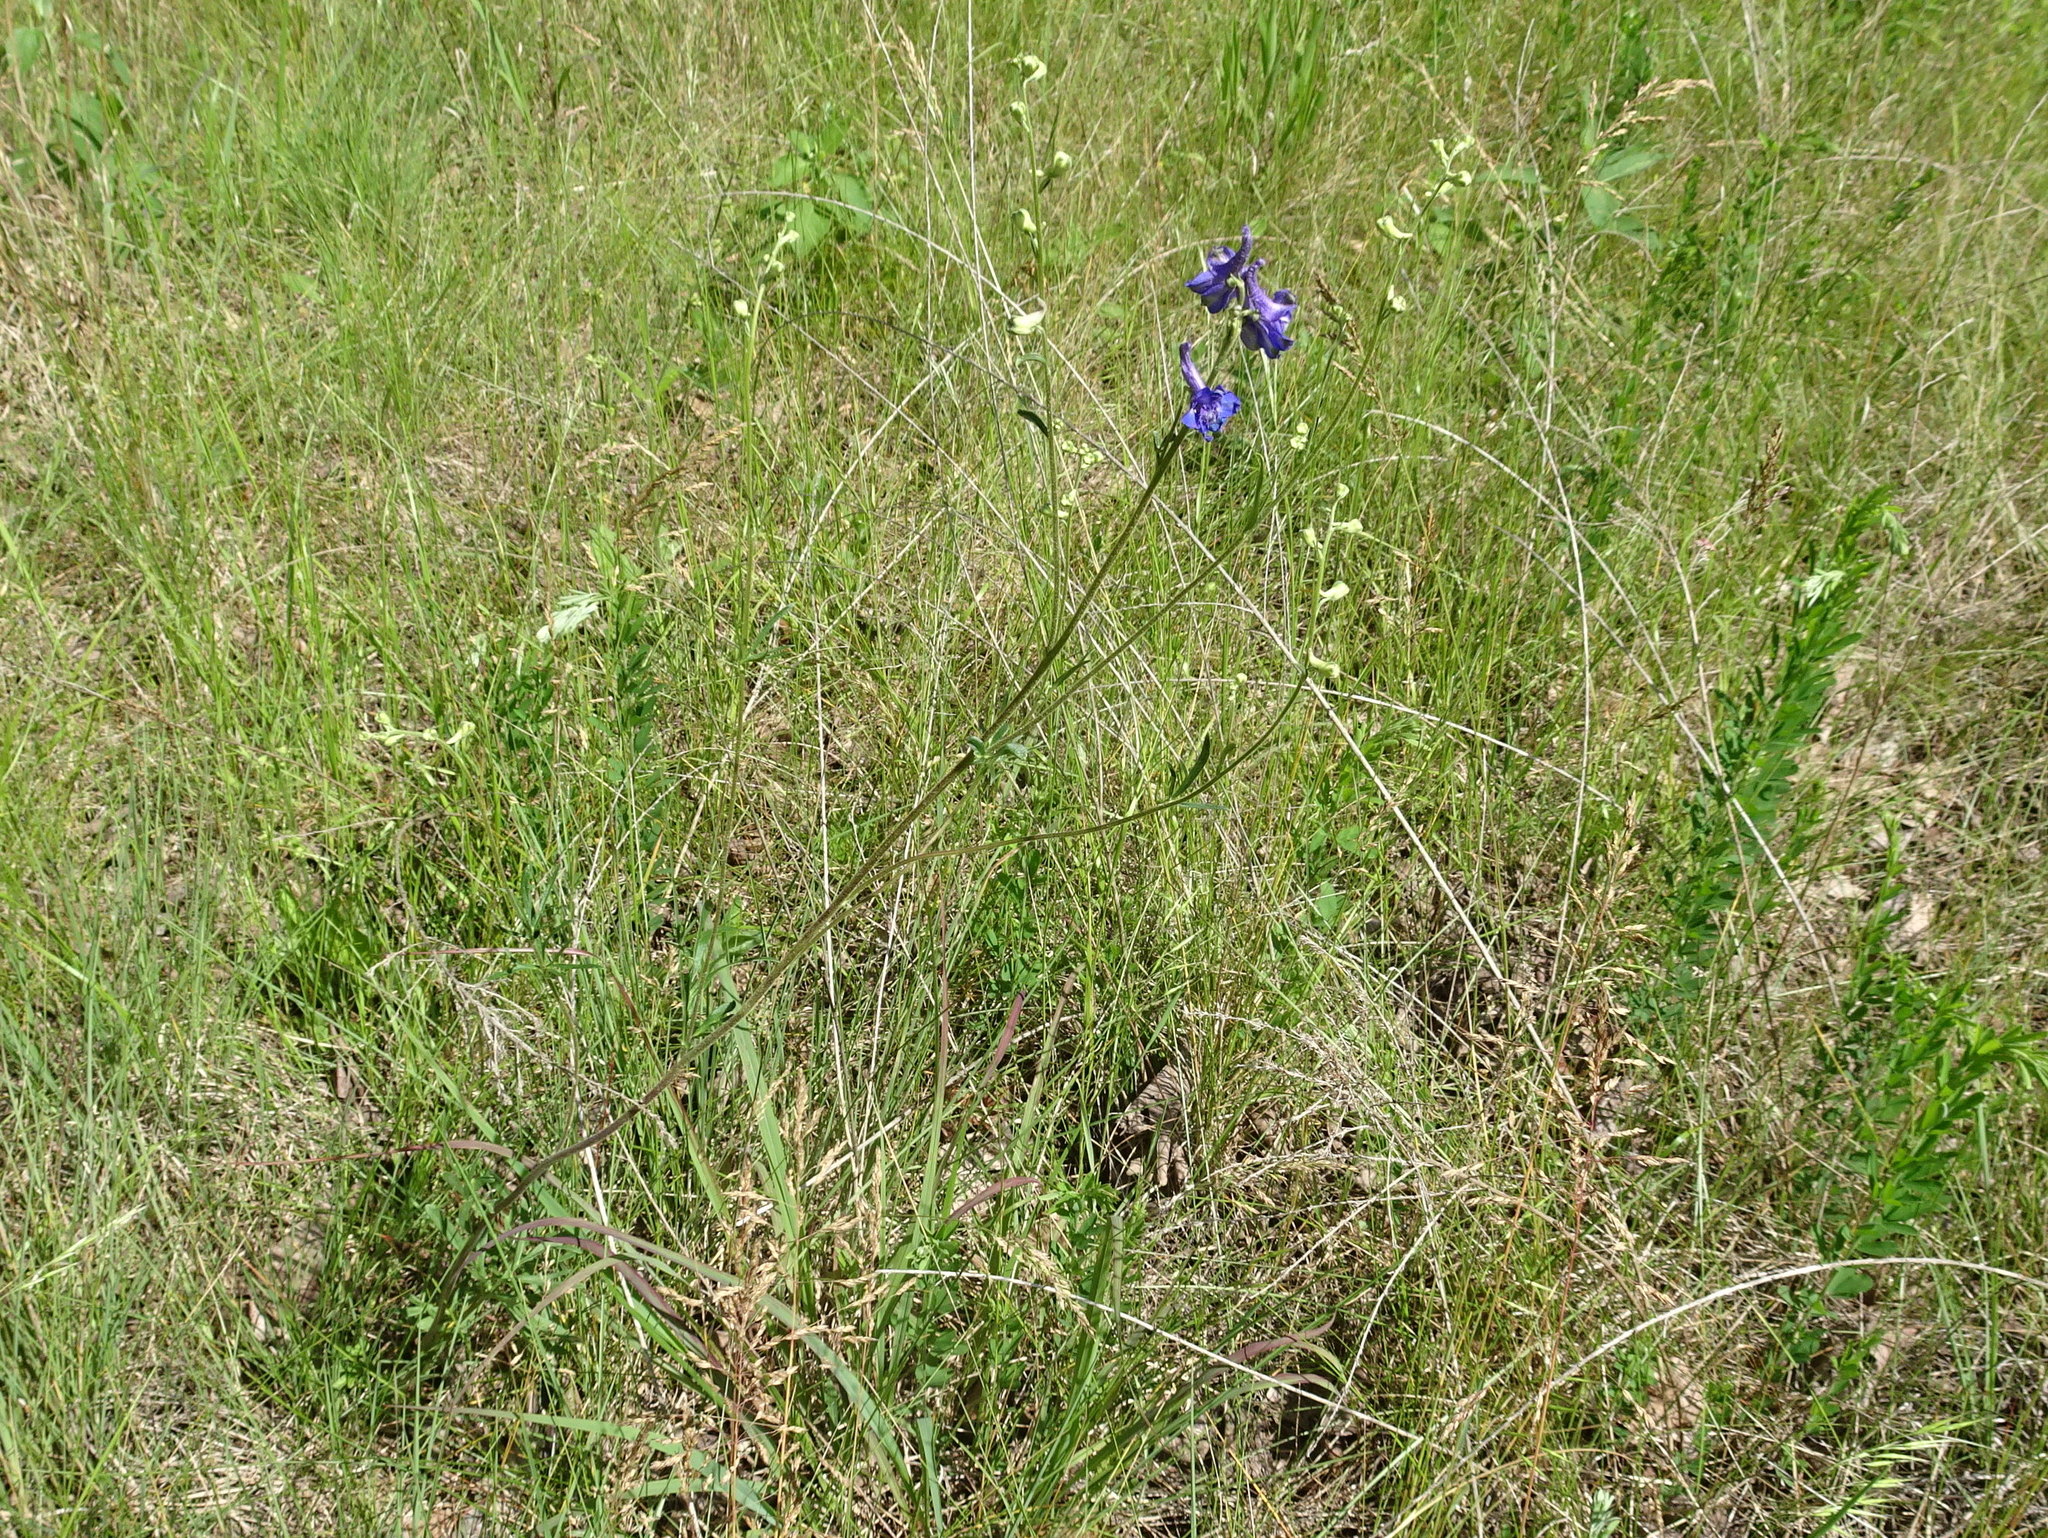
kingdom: Plantae
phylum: Tracheophyta
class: Magnoliopsida
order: Ranunculales
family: Ranunculaceae
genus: Delphinium
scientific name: Delphinium carolinianum
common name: Carolina larkspur
